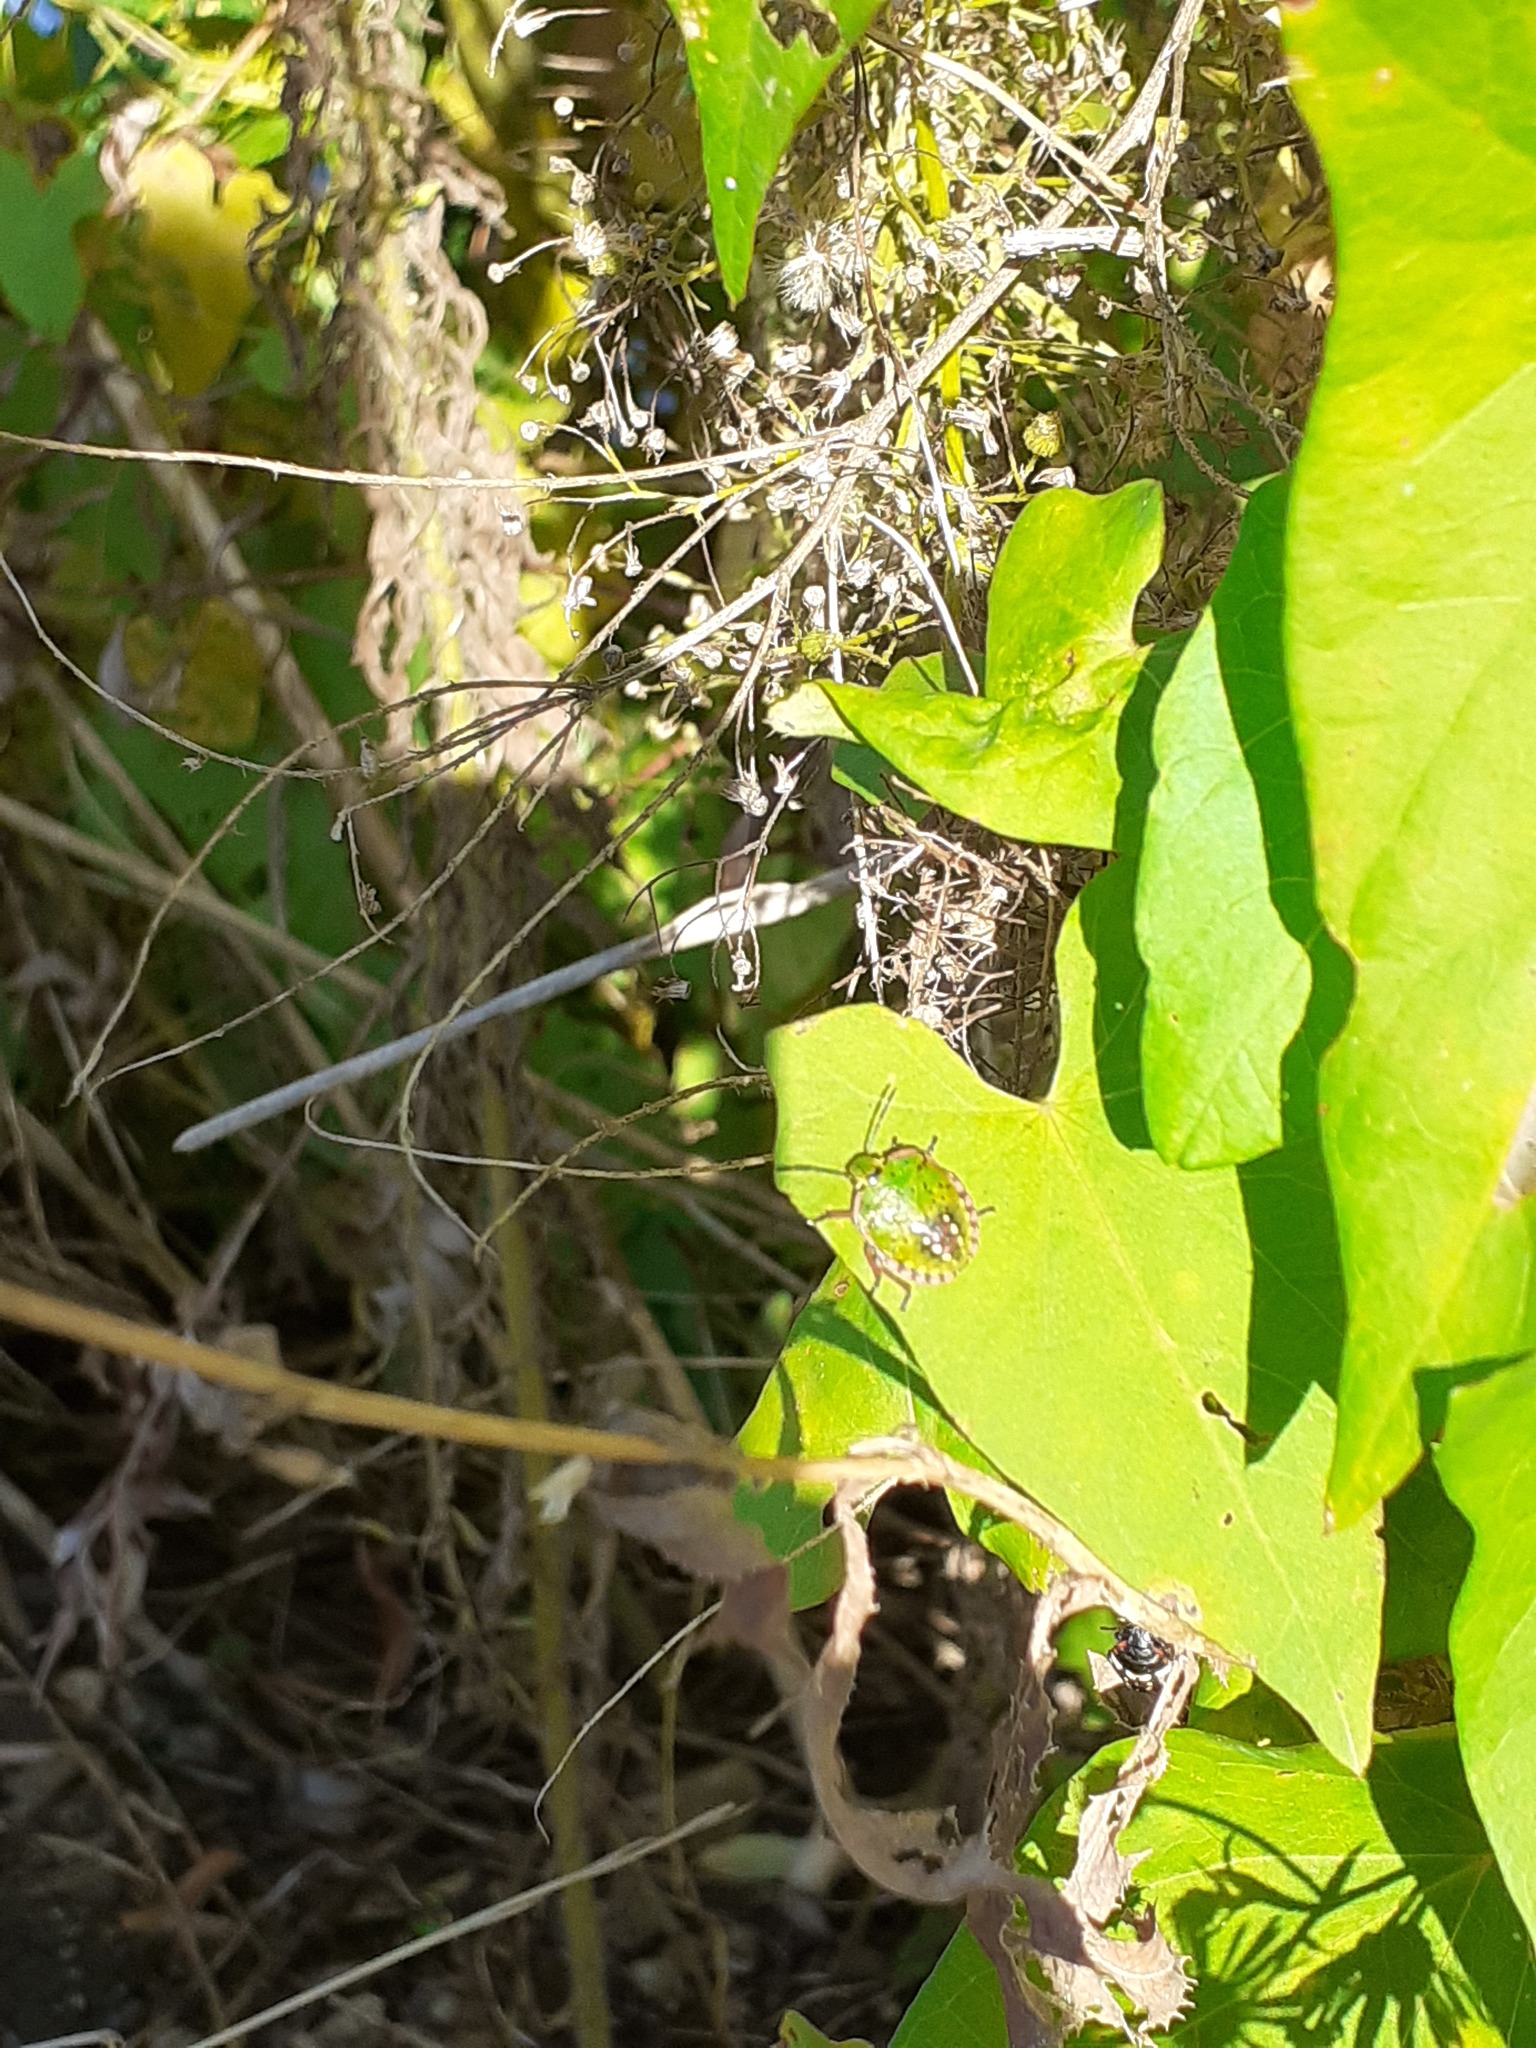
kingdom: Animalia
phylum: Arthropoda
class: Insecta
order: Hemiptera
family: Pentatomidae
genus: Nezara
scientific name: Nezara viridula
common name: Southern green stink bug
